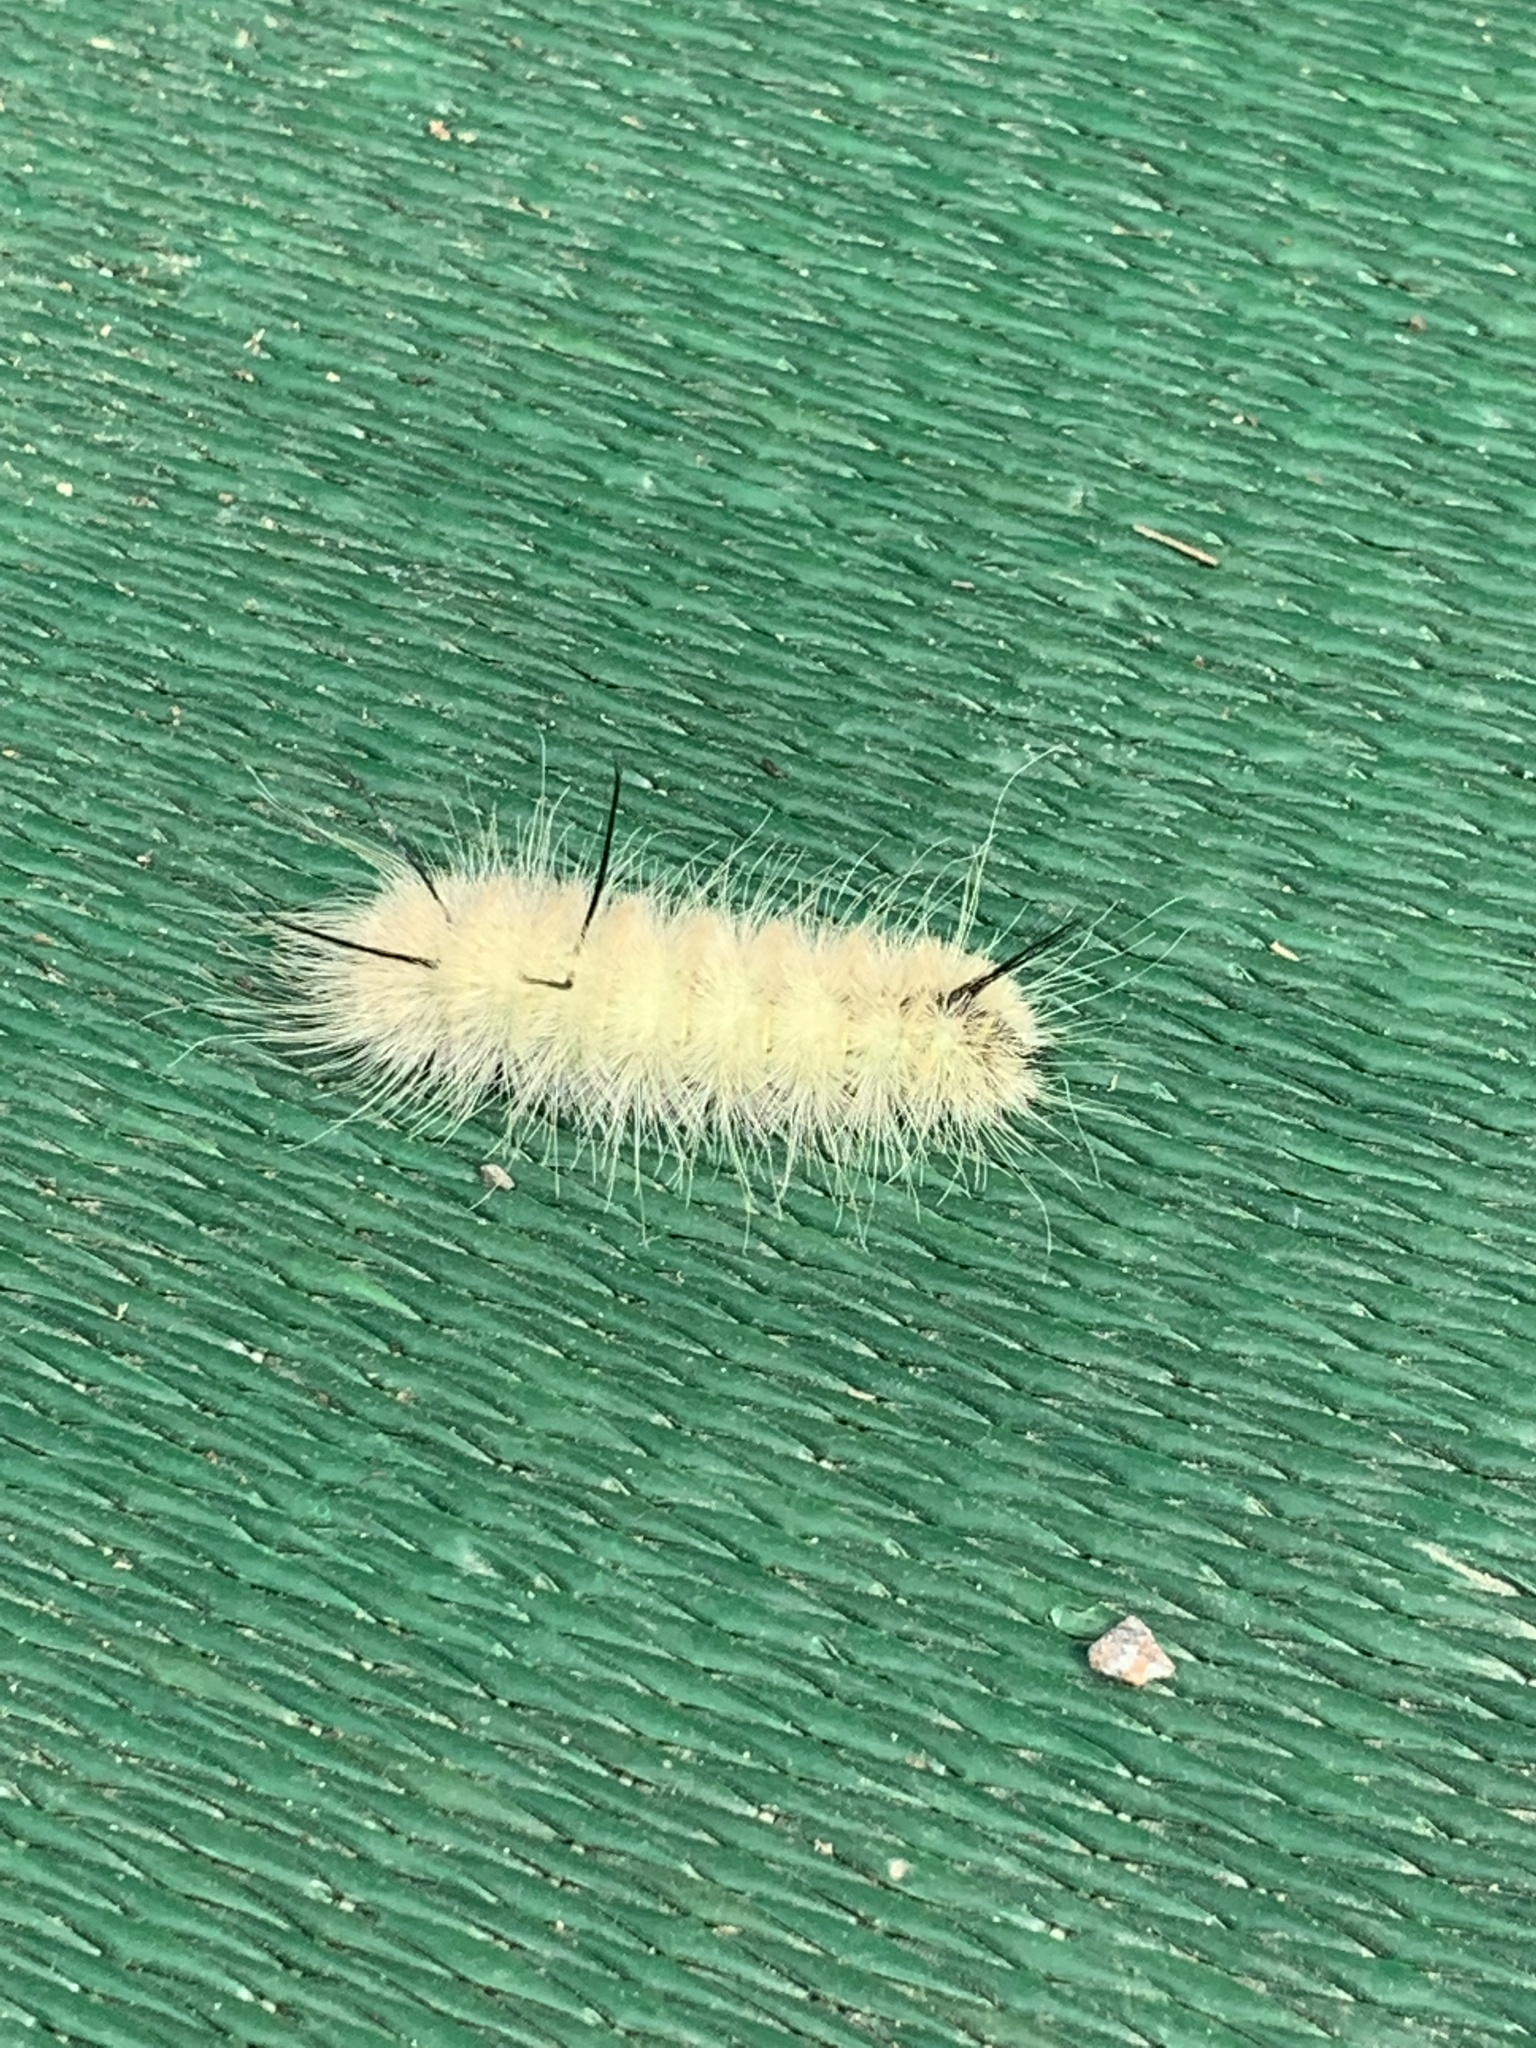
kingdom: Animalia
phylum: Arthropoda
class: Insecta
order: Lepidoptera
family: Noctuidae
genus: Acronicta
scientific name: Acronicta americana
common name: American dagger
